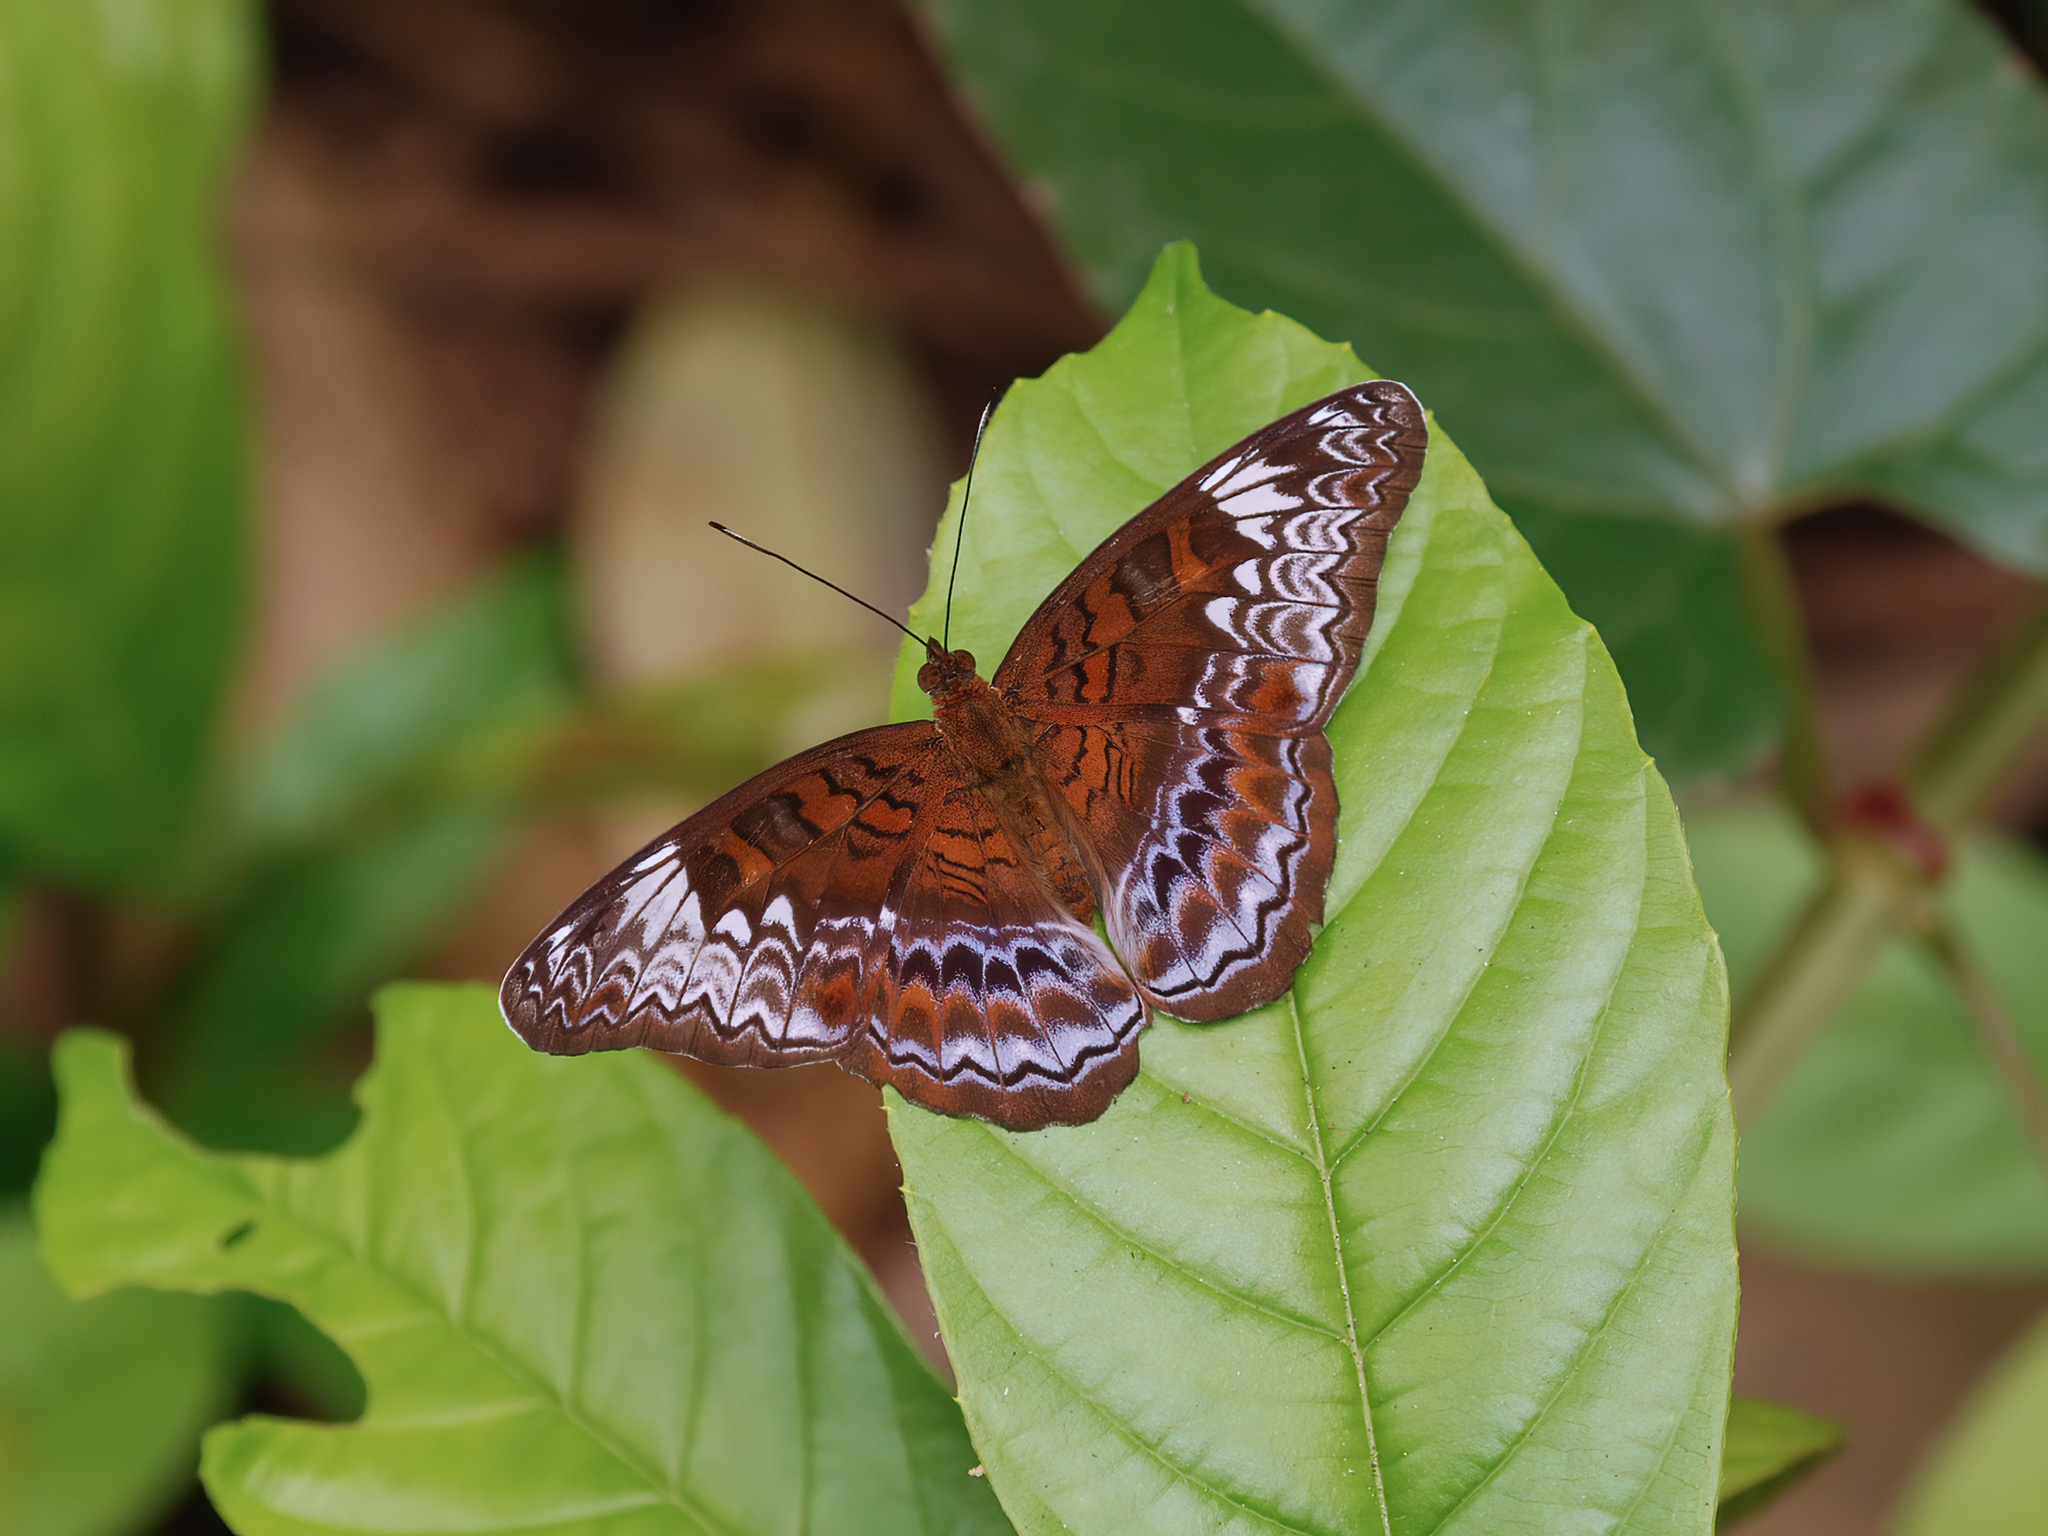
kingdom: Animalia
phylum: Arthropoda
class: Insecta
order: Lepidoptera
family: Nymphalidae
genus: Lebadea
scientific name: Lebadea martha
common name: Knight
